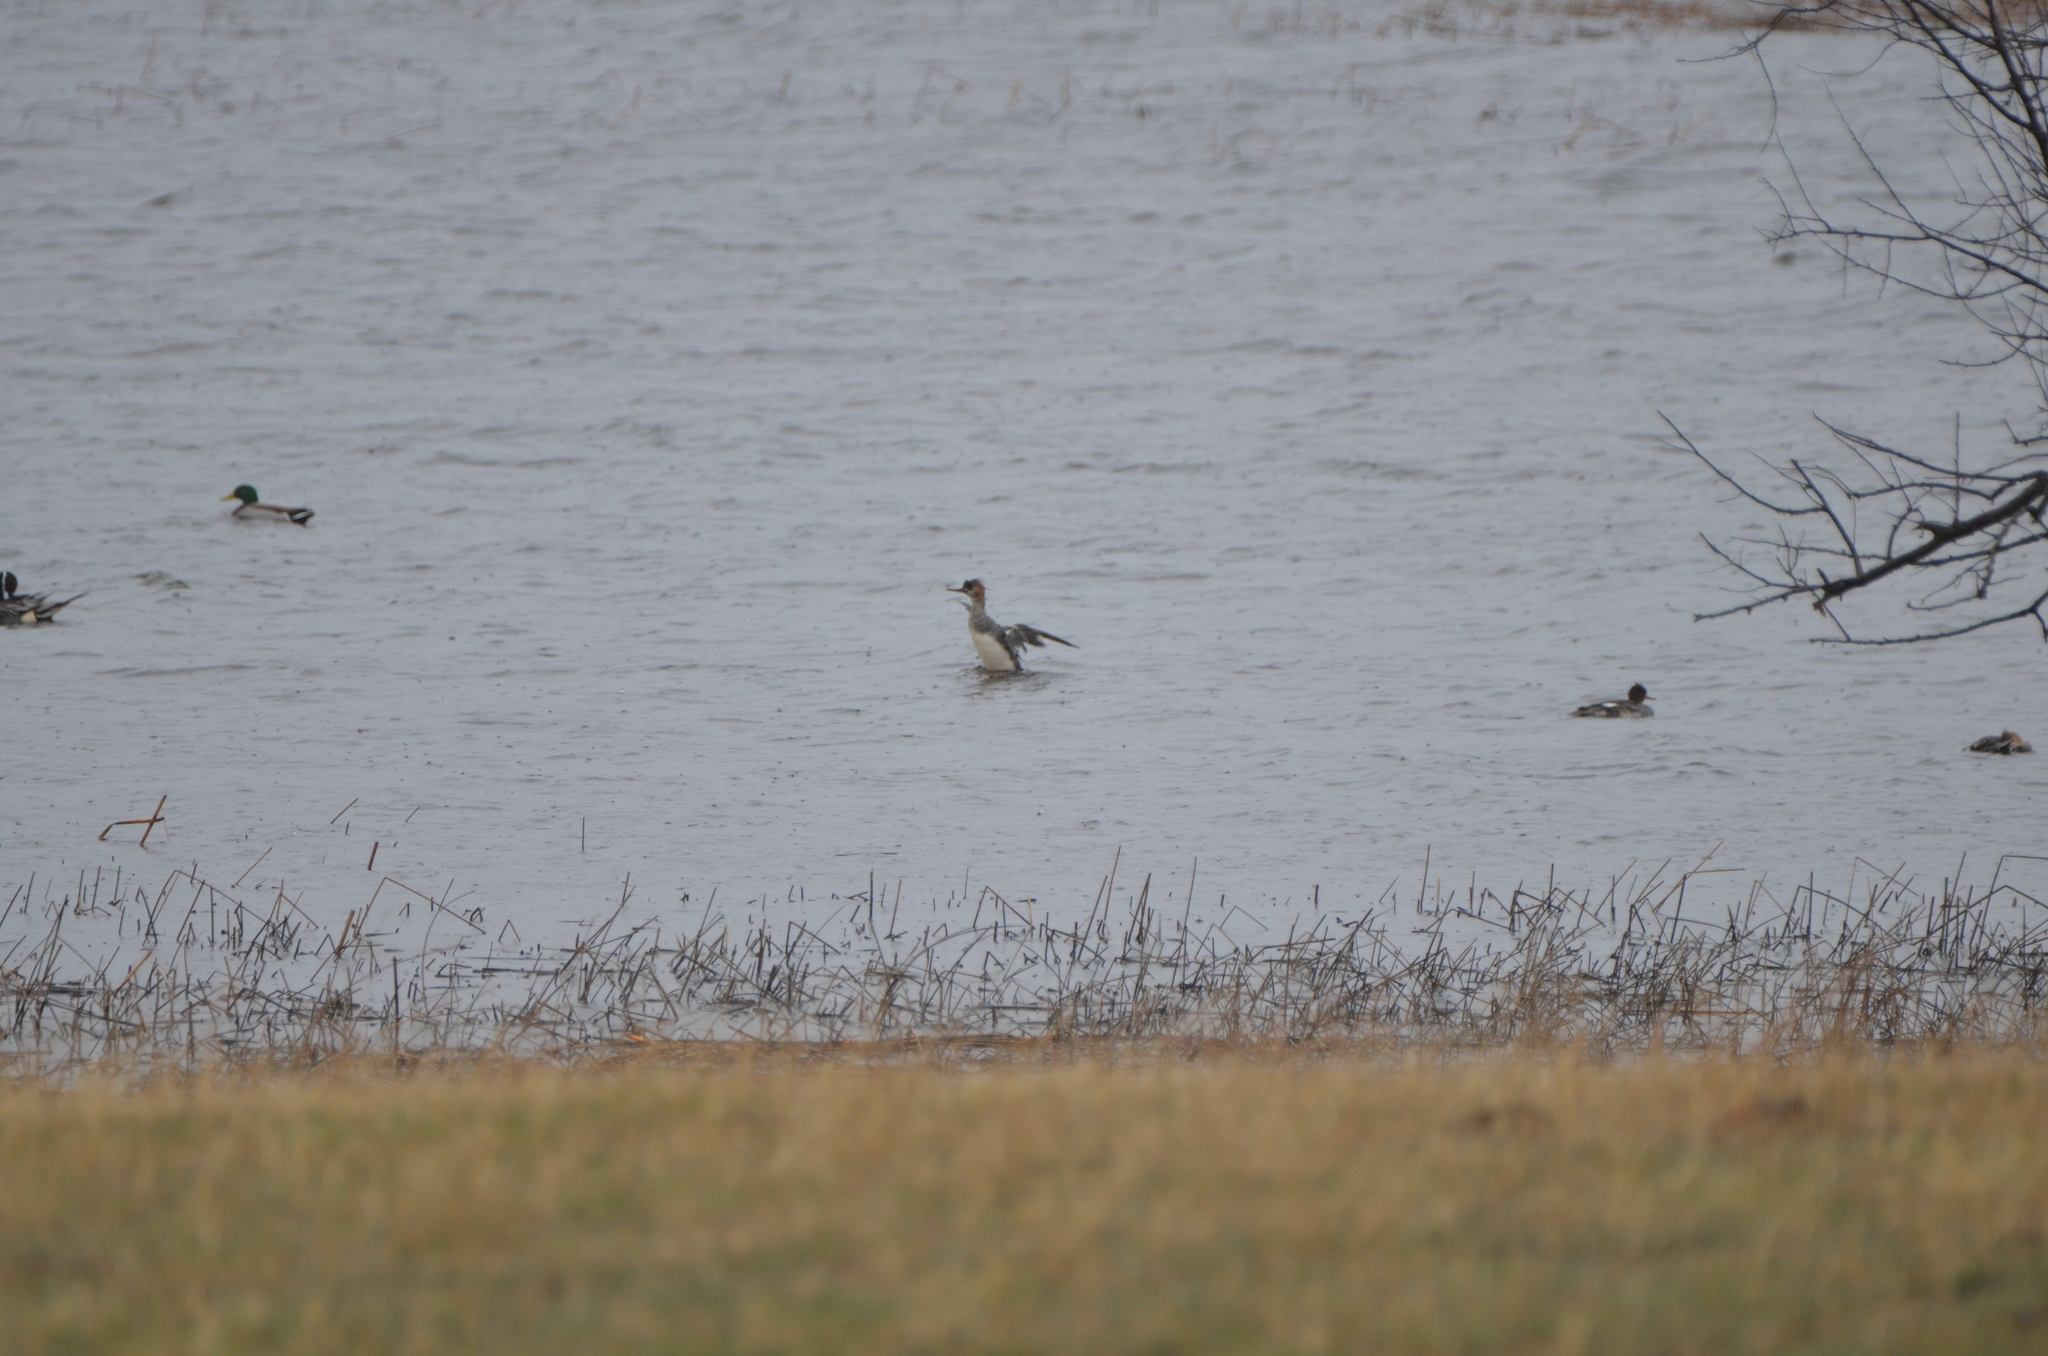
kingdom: Animalia
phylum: Chordata
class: Aves
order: Anseriformes
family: Anatidae
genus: Mergus
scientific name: Mergus serrator
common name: Red-breasted merganser
